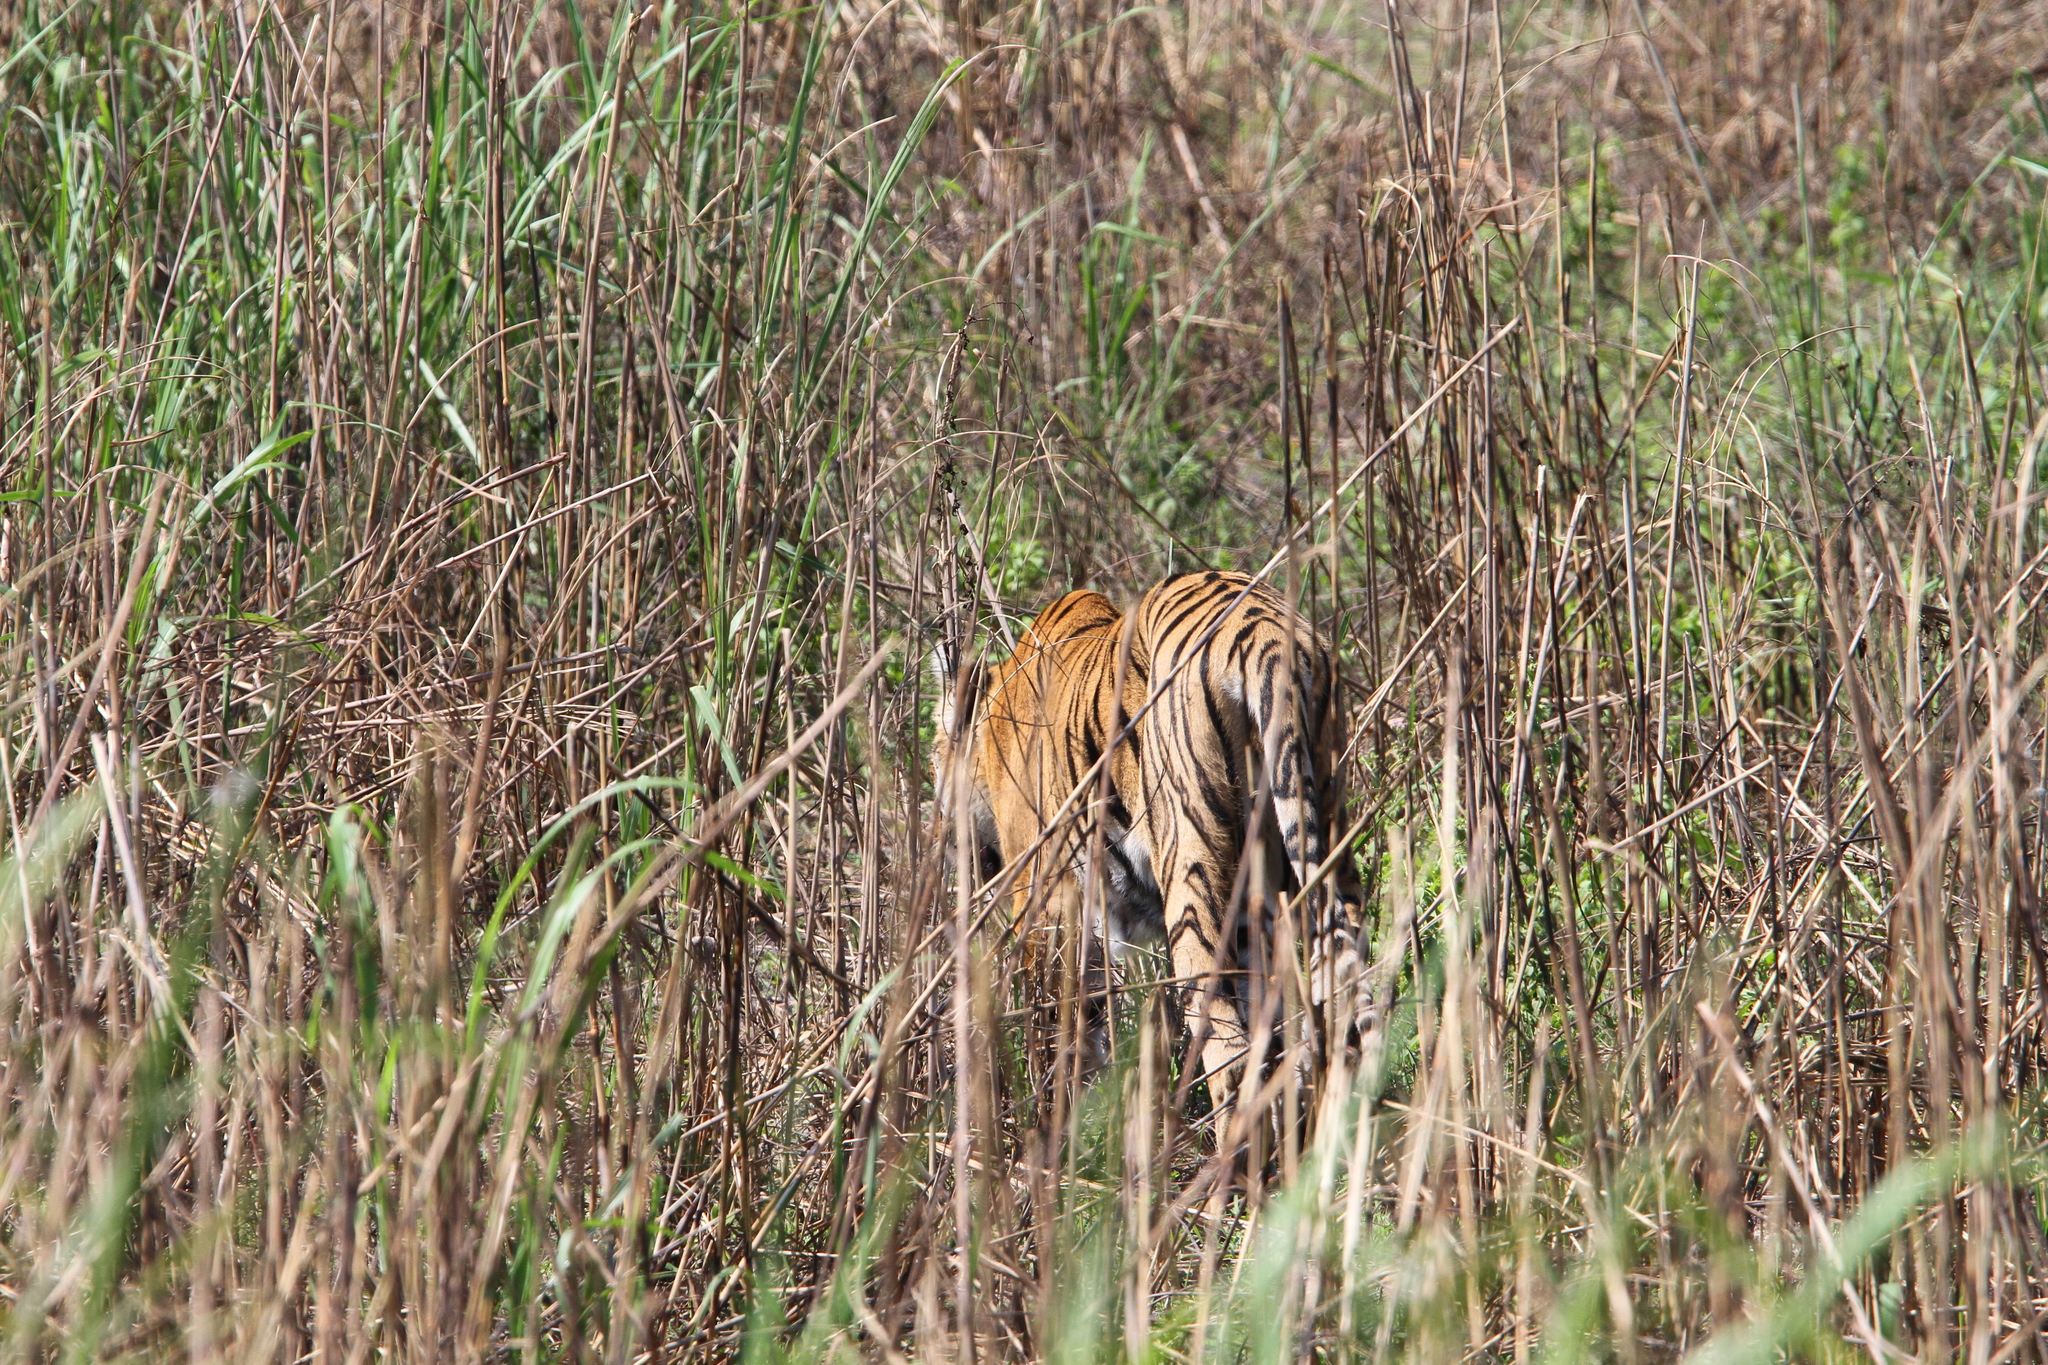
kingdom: Animalia
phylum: Chordata
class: Mammalia
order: Carnivora
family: Felidae
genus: Panthera
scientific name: Panthera tigris
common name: Tiger
